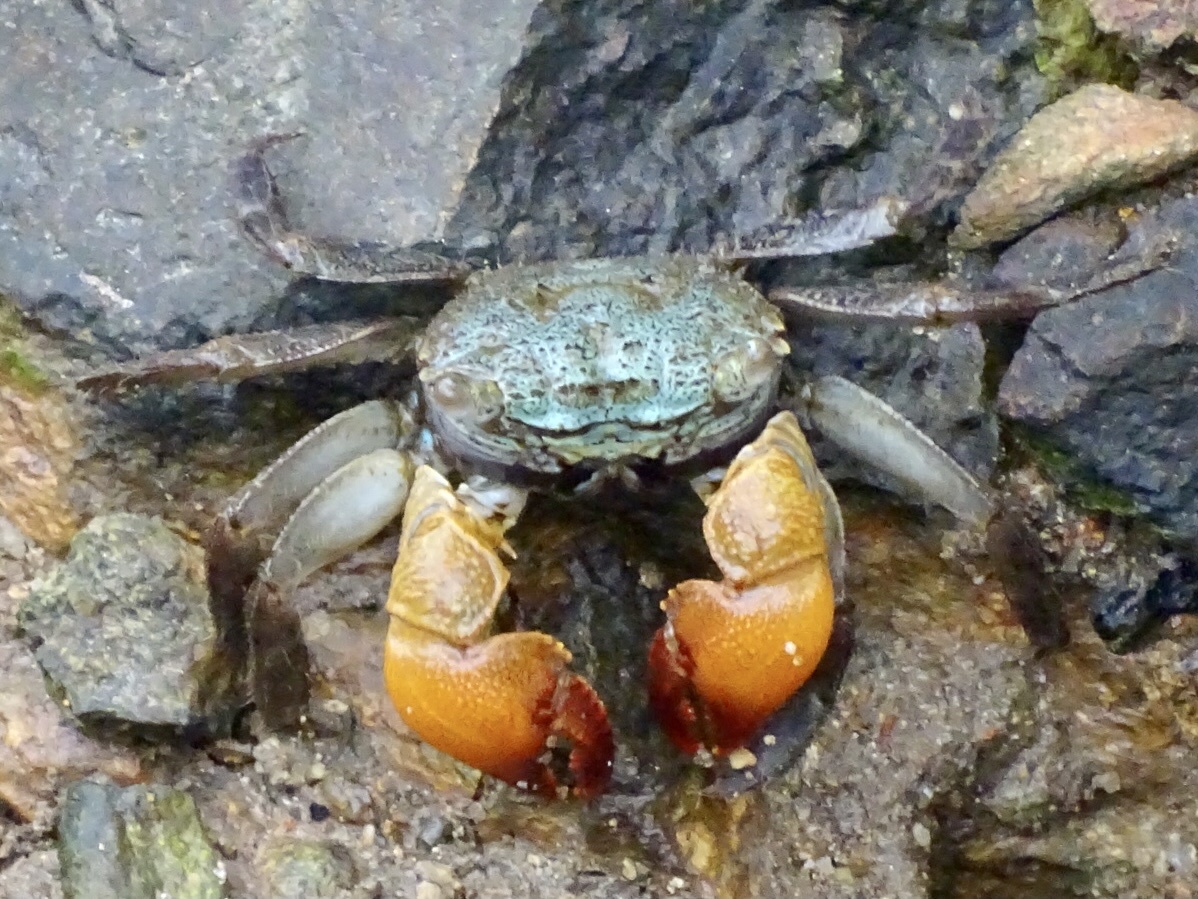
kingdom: Animalia
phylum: Arthropoda
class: Malacostraca
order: Decapoda
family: Sesarmidae
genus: Parasesarma
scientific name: Parasesarma bidens
